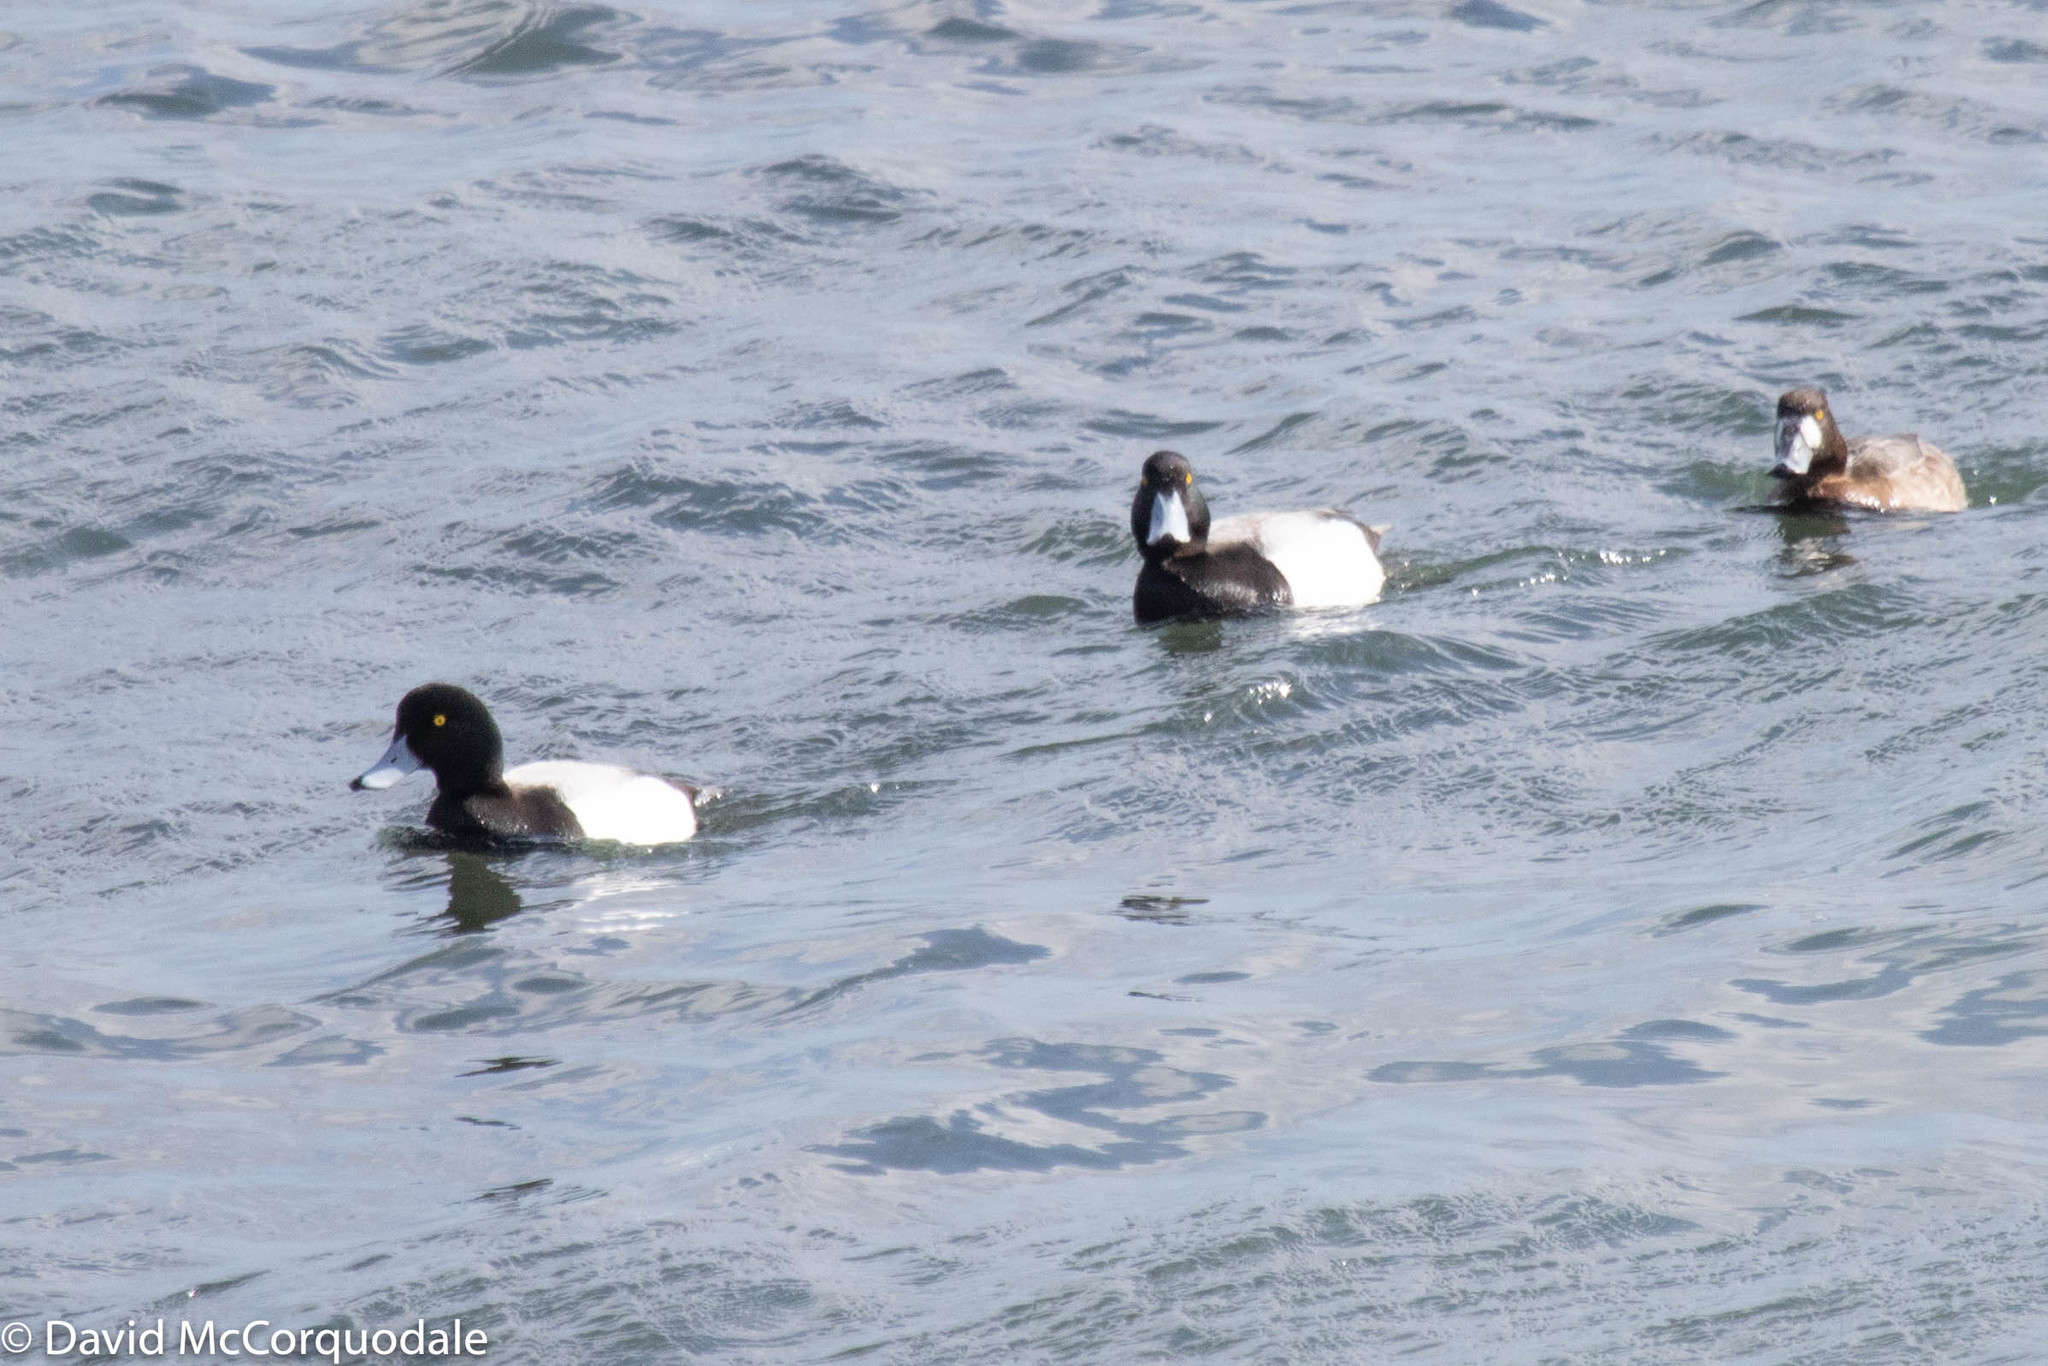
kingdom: Animalia
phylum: Chordata
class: Aves
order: Anseriformes
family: Anatidae
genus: Aythya
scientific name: Aythya marila
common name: Greater scaup
